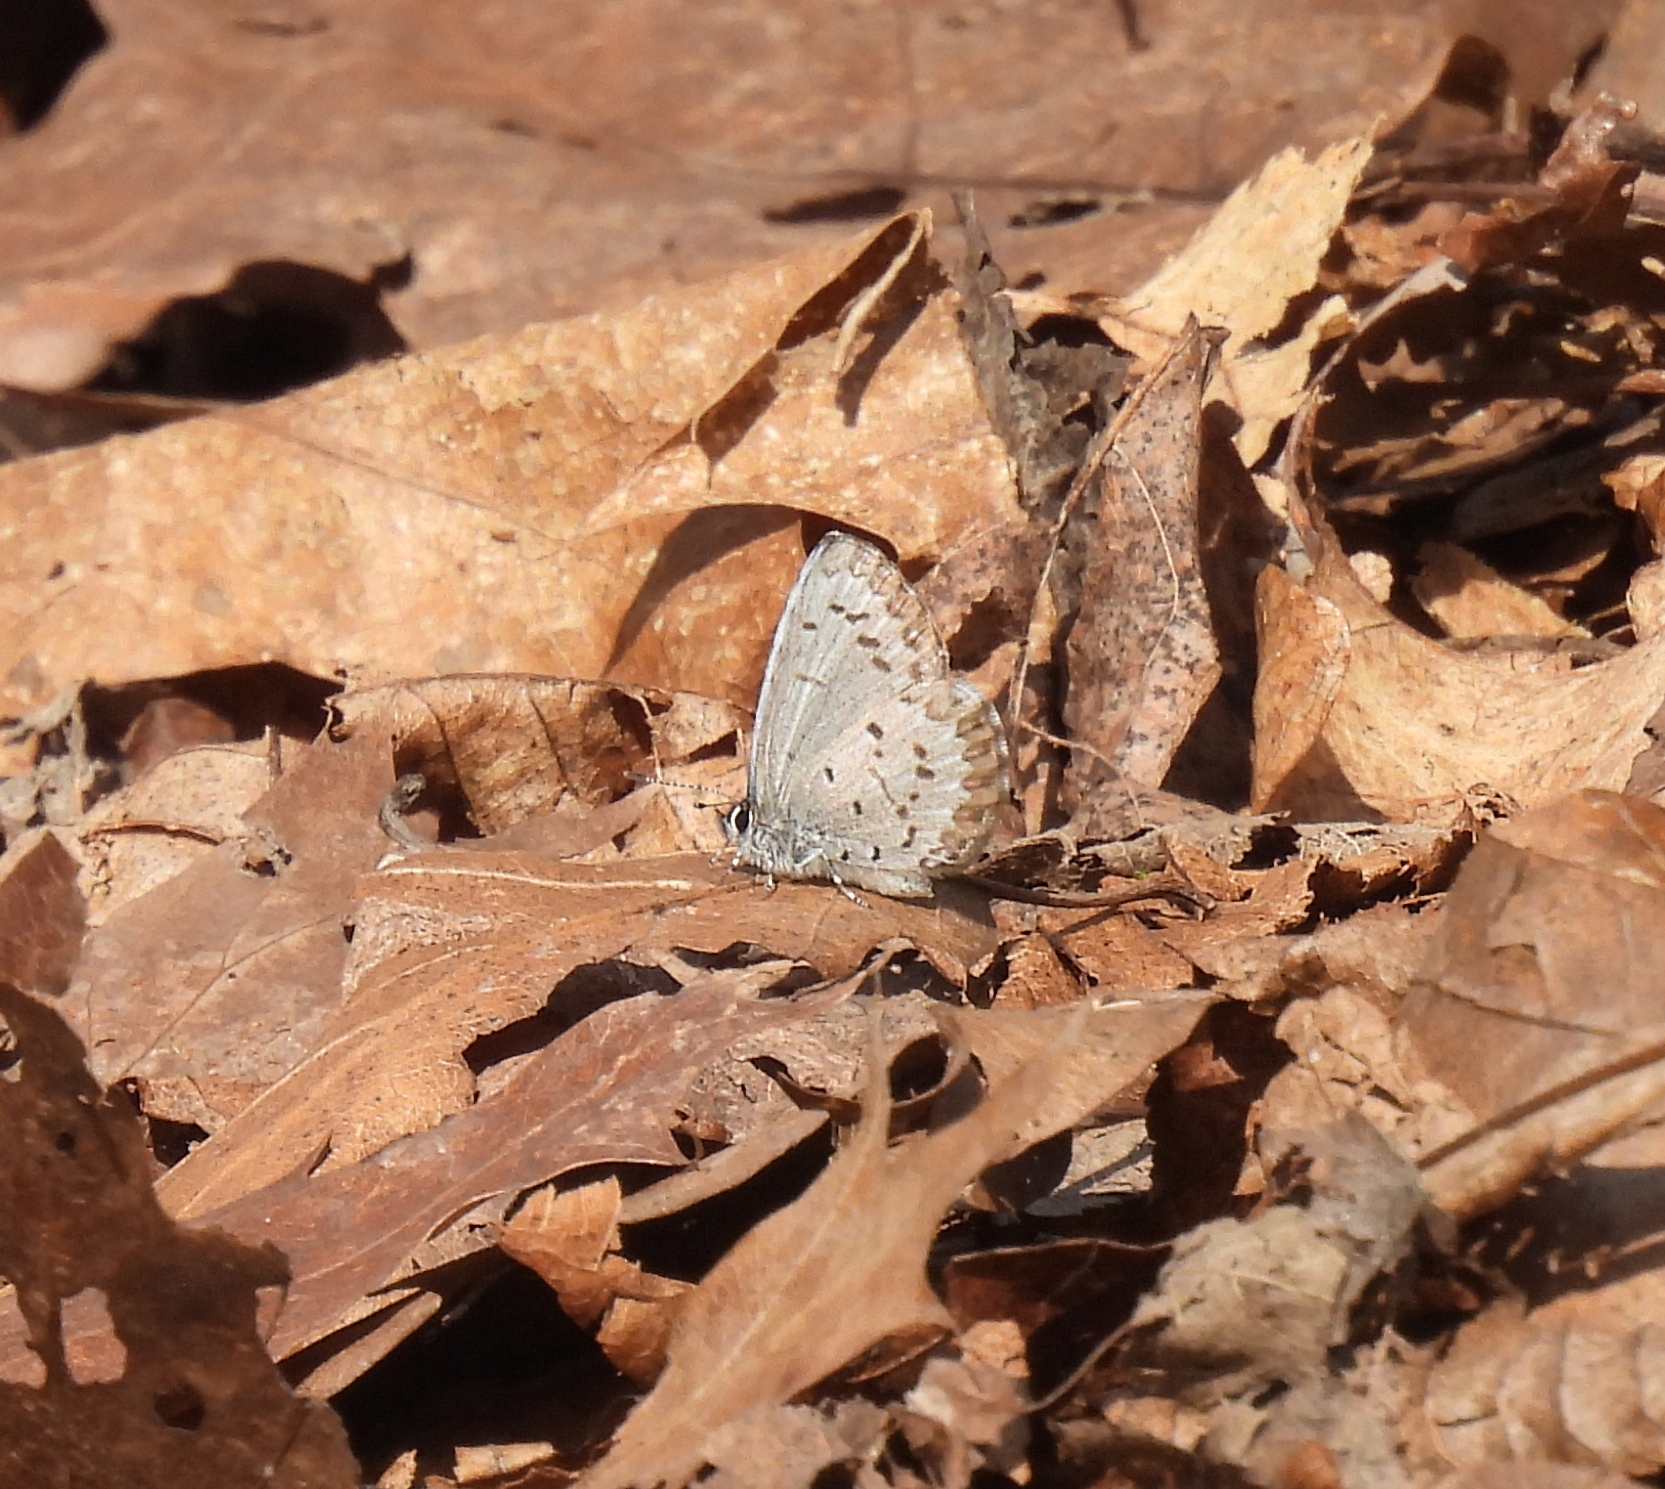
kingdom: Animalia
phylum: Arthropoda
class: Insecta
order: Lepidoptera
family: Lycaenidae
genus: Celastrina
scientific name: Celastrina lucia
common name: Lucia azure
